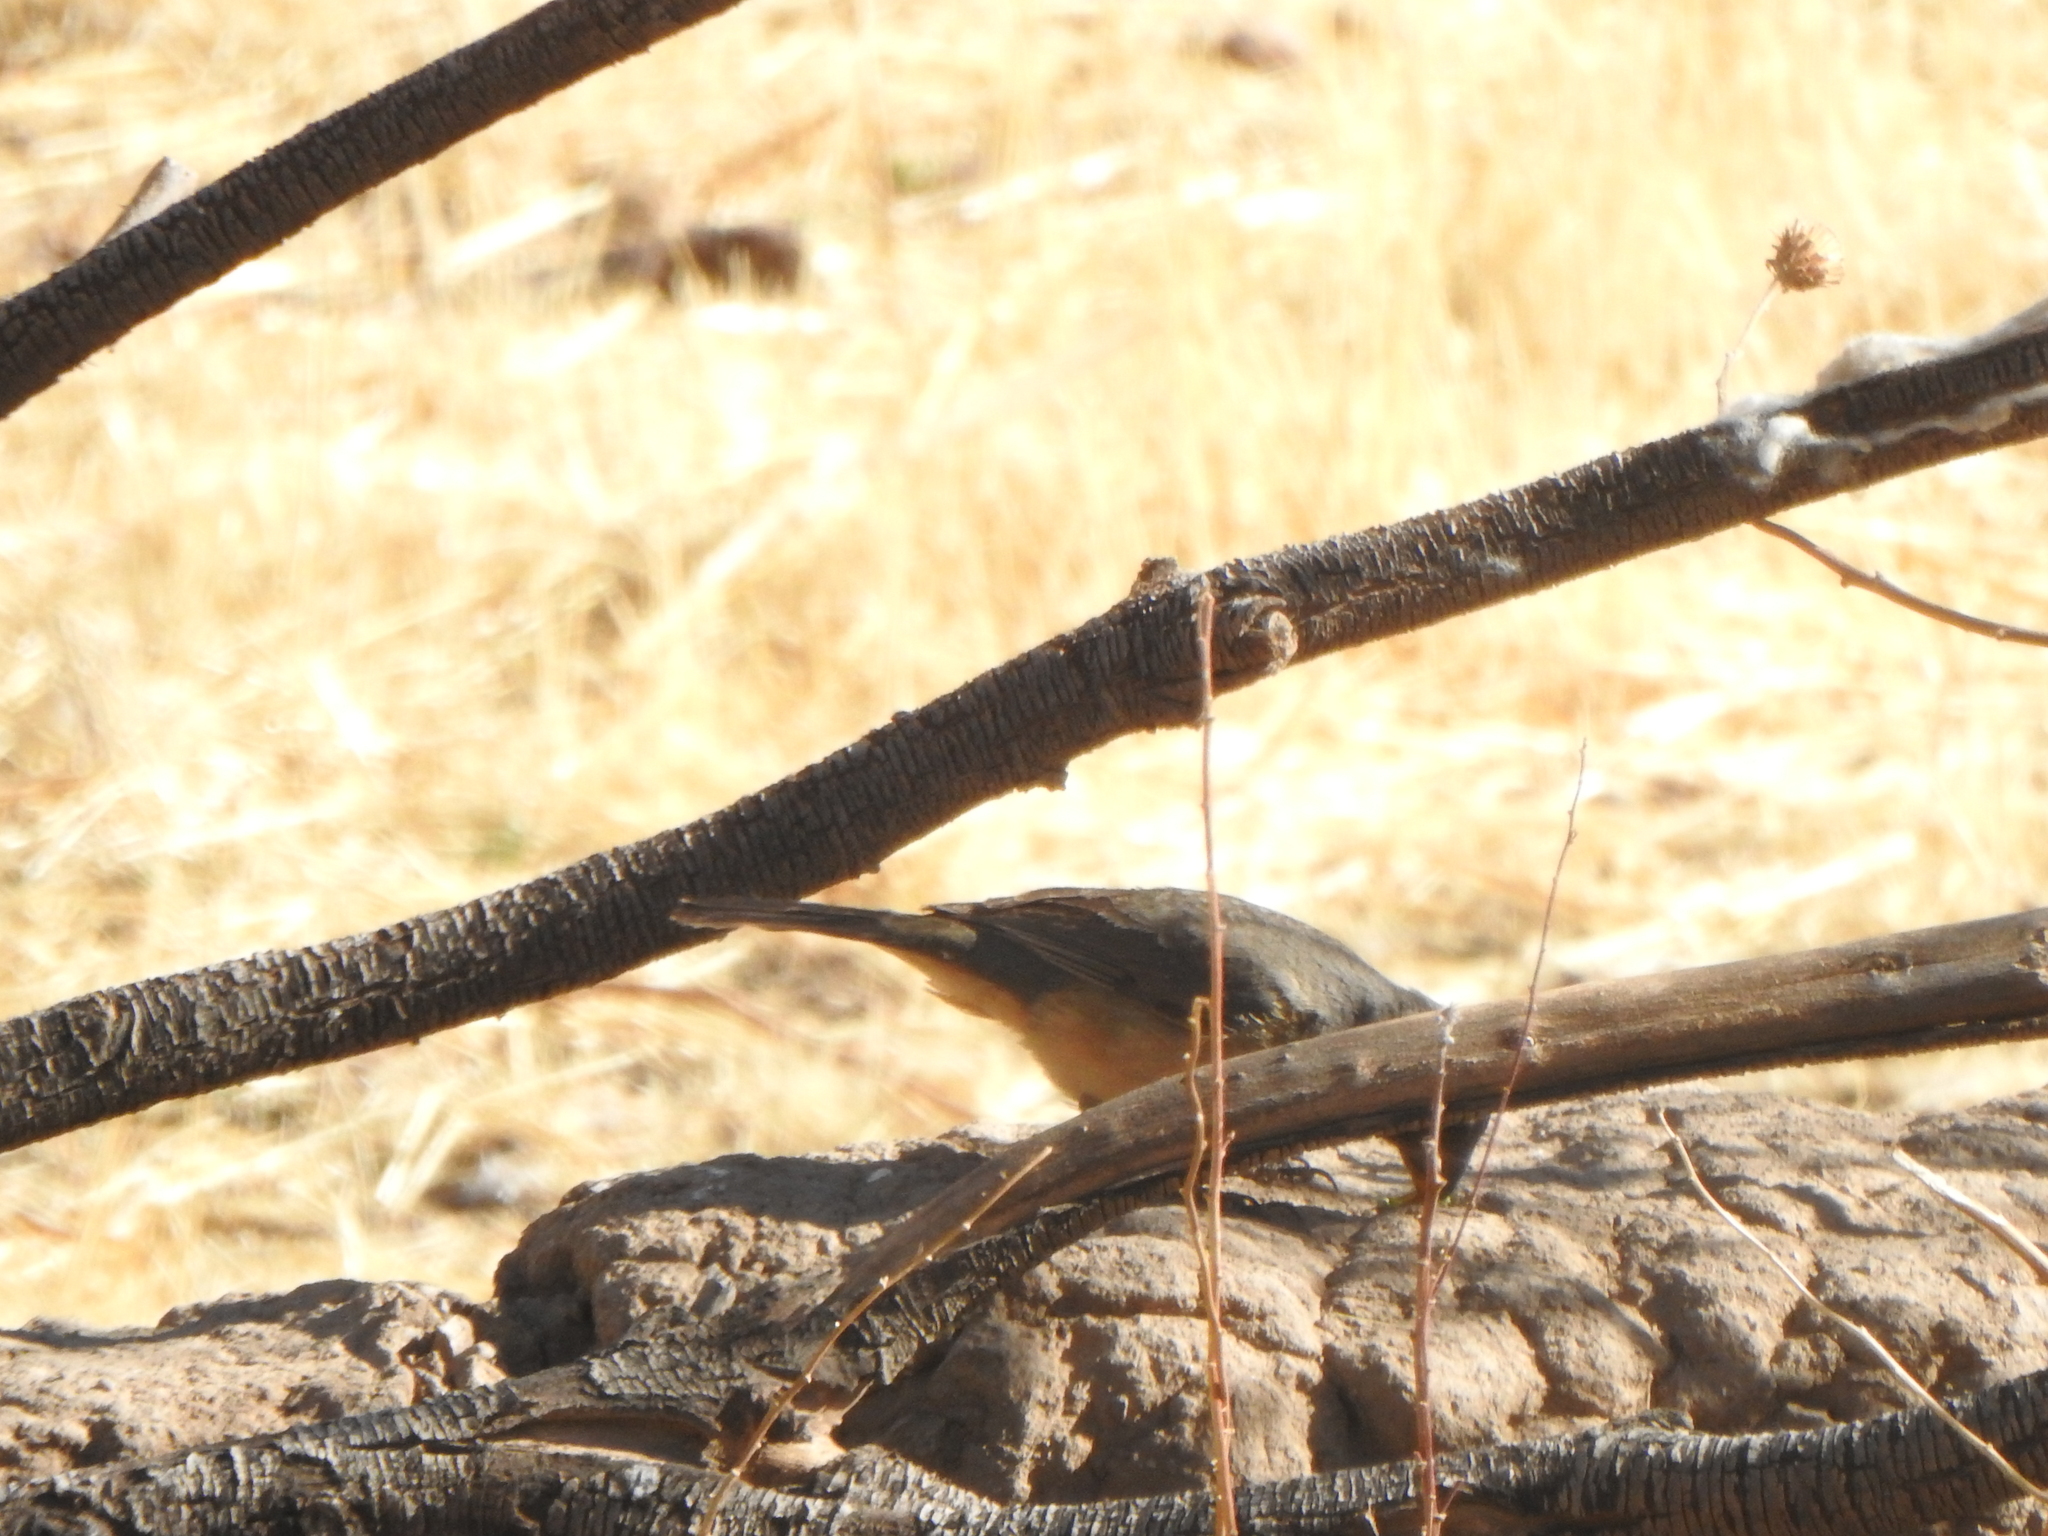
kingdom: Animalia
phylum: Chordata
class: Aves
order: Passeriformes
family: Thraupidae
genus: Saltator
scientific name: Saltator aurantiirostris
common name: Golden-billed saltator
